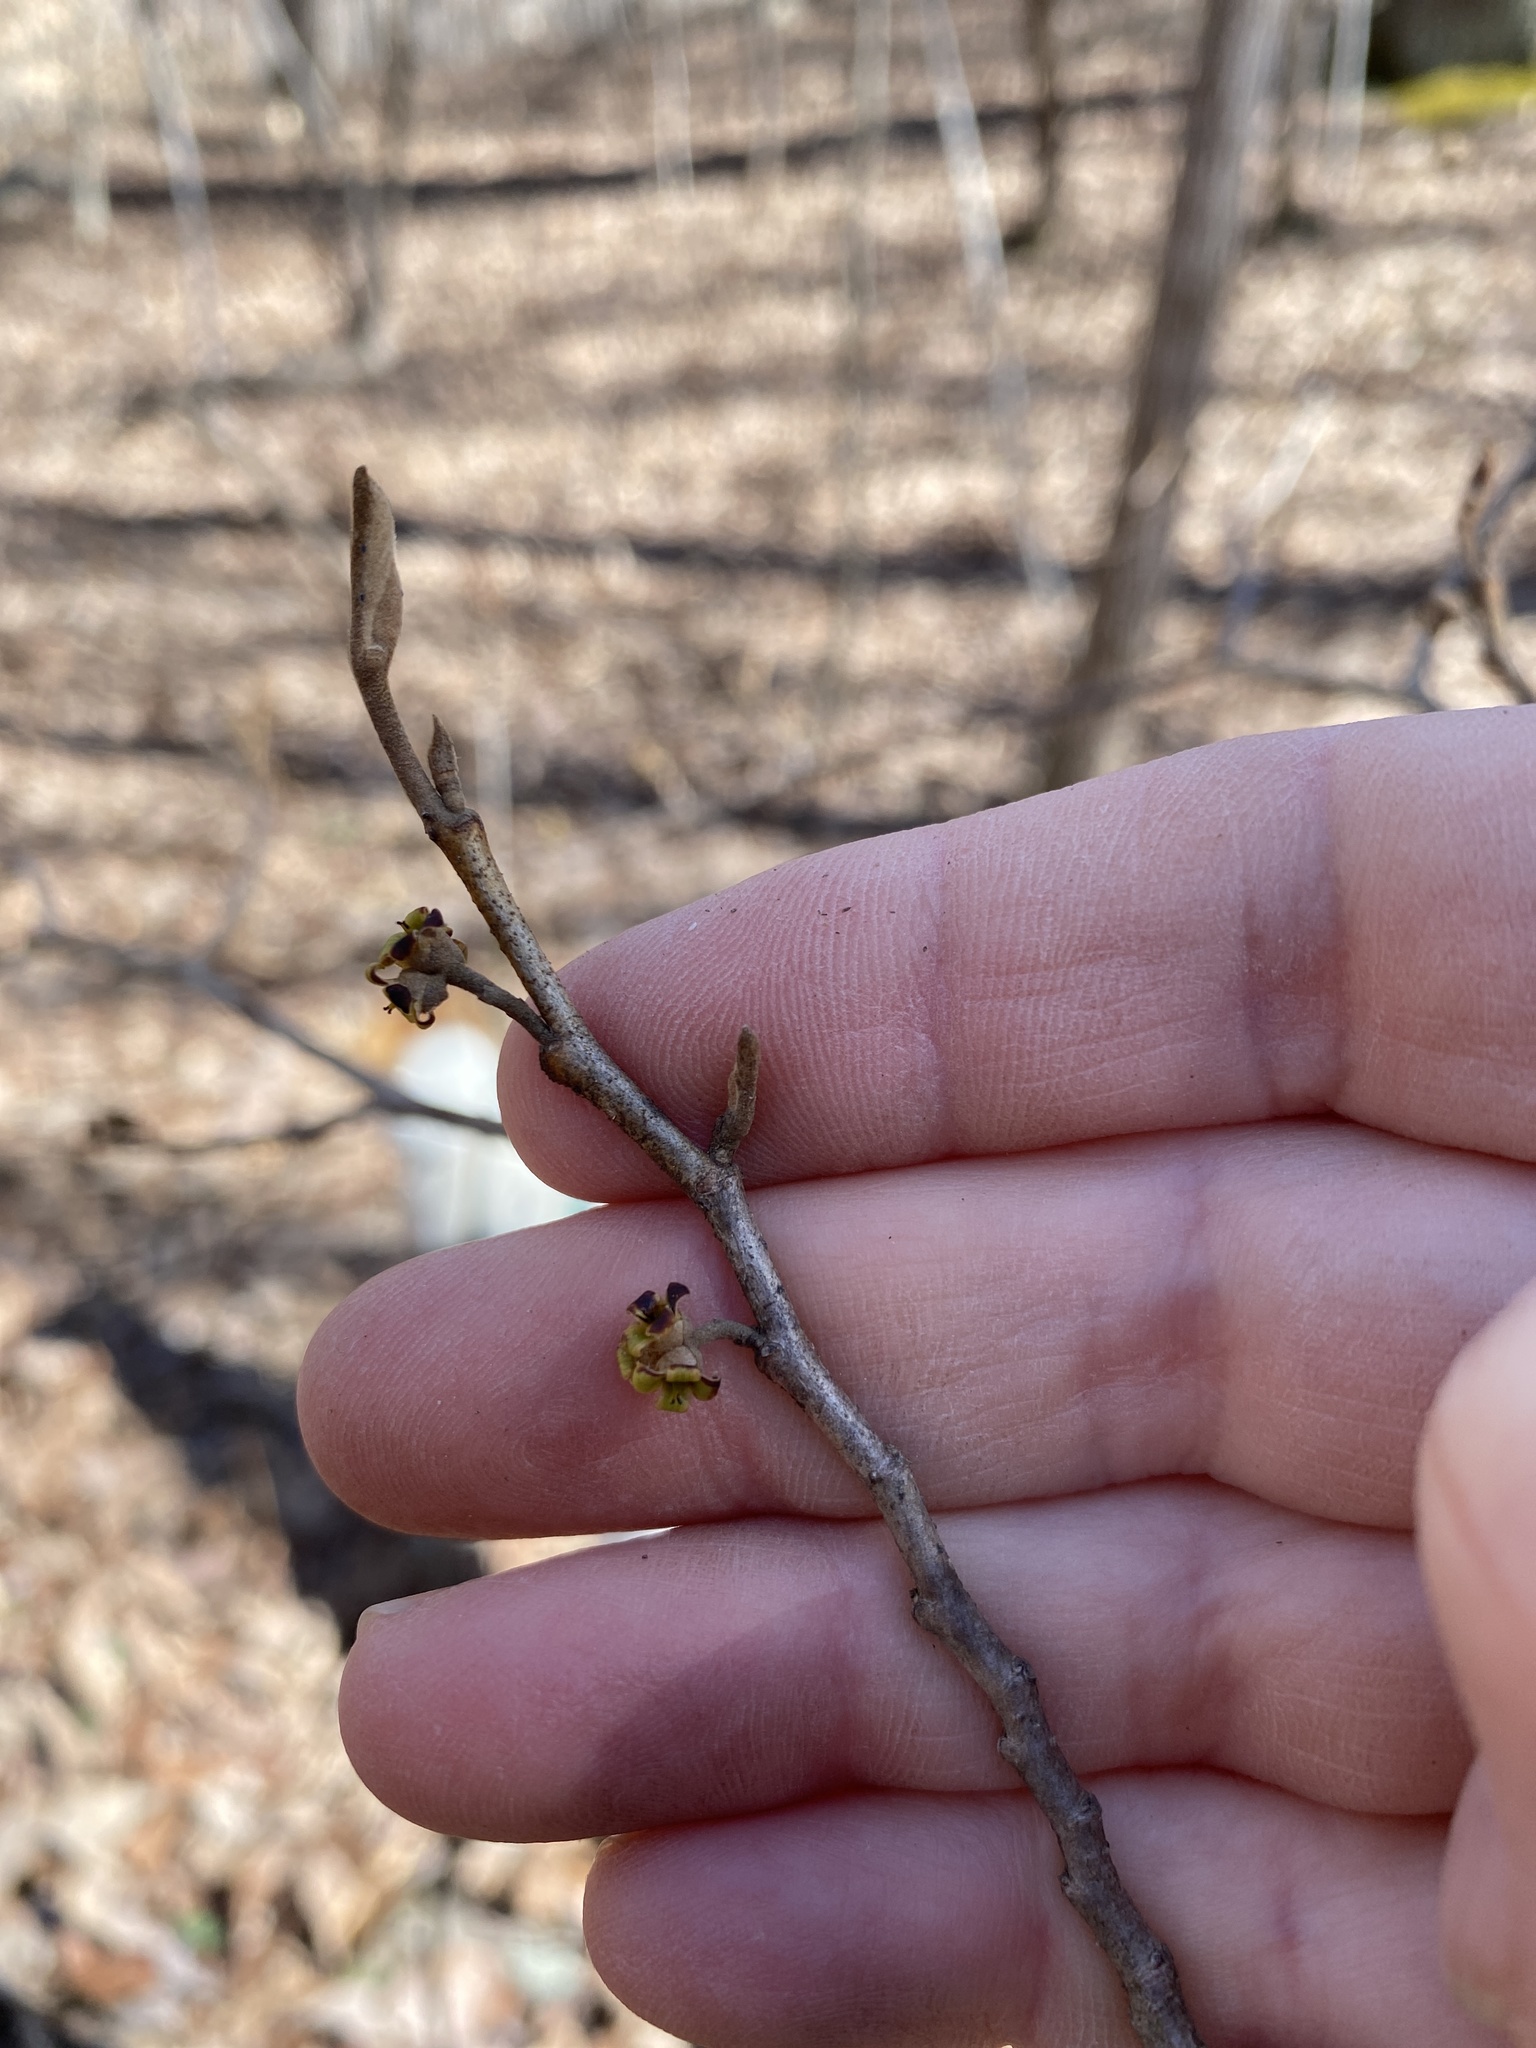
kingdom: Plantae
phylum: Tracheophyta
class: Magnoliopsida
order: Saxifragales
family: Hamamelidaceae
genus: Hamamelis
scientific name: Hamamelis virginiana
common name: Witch-hazel
